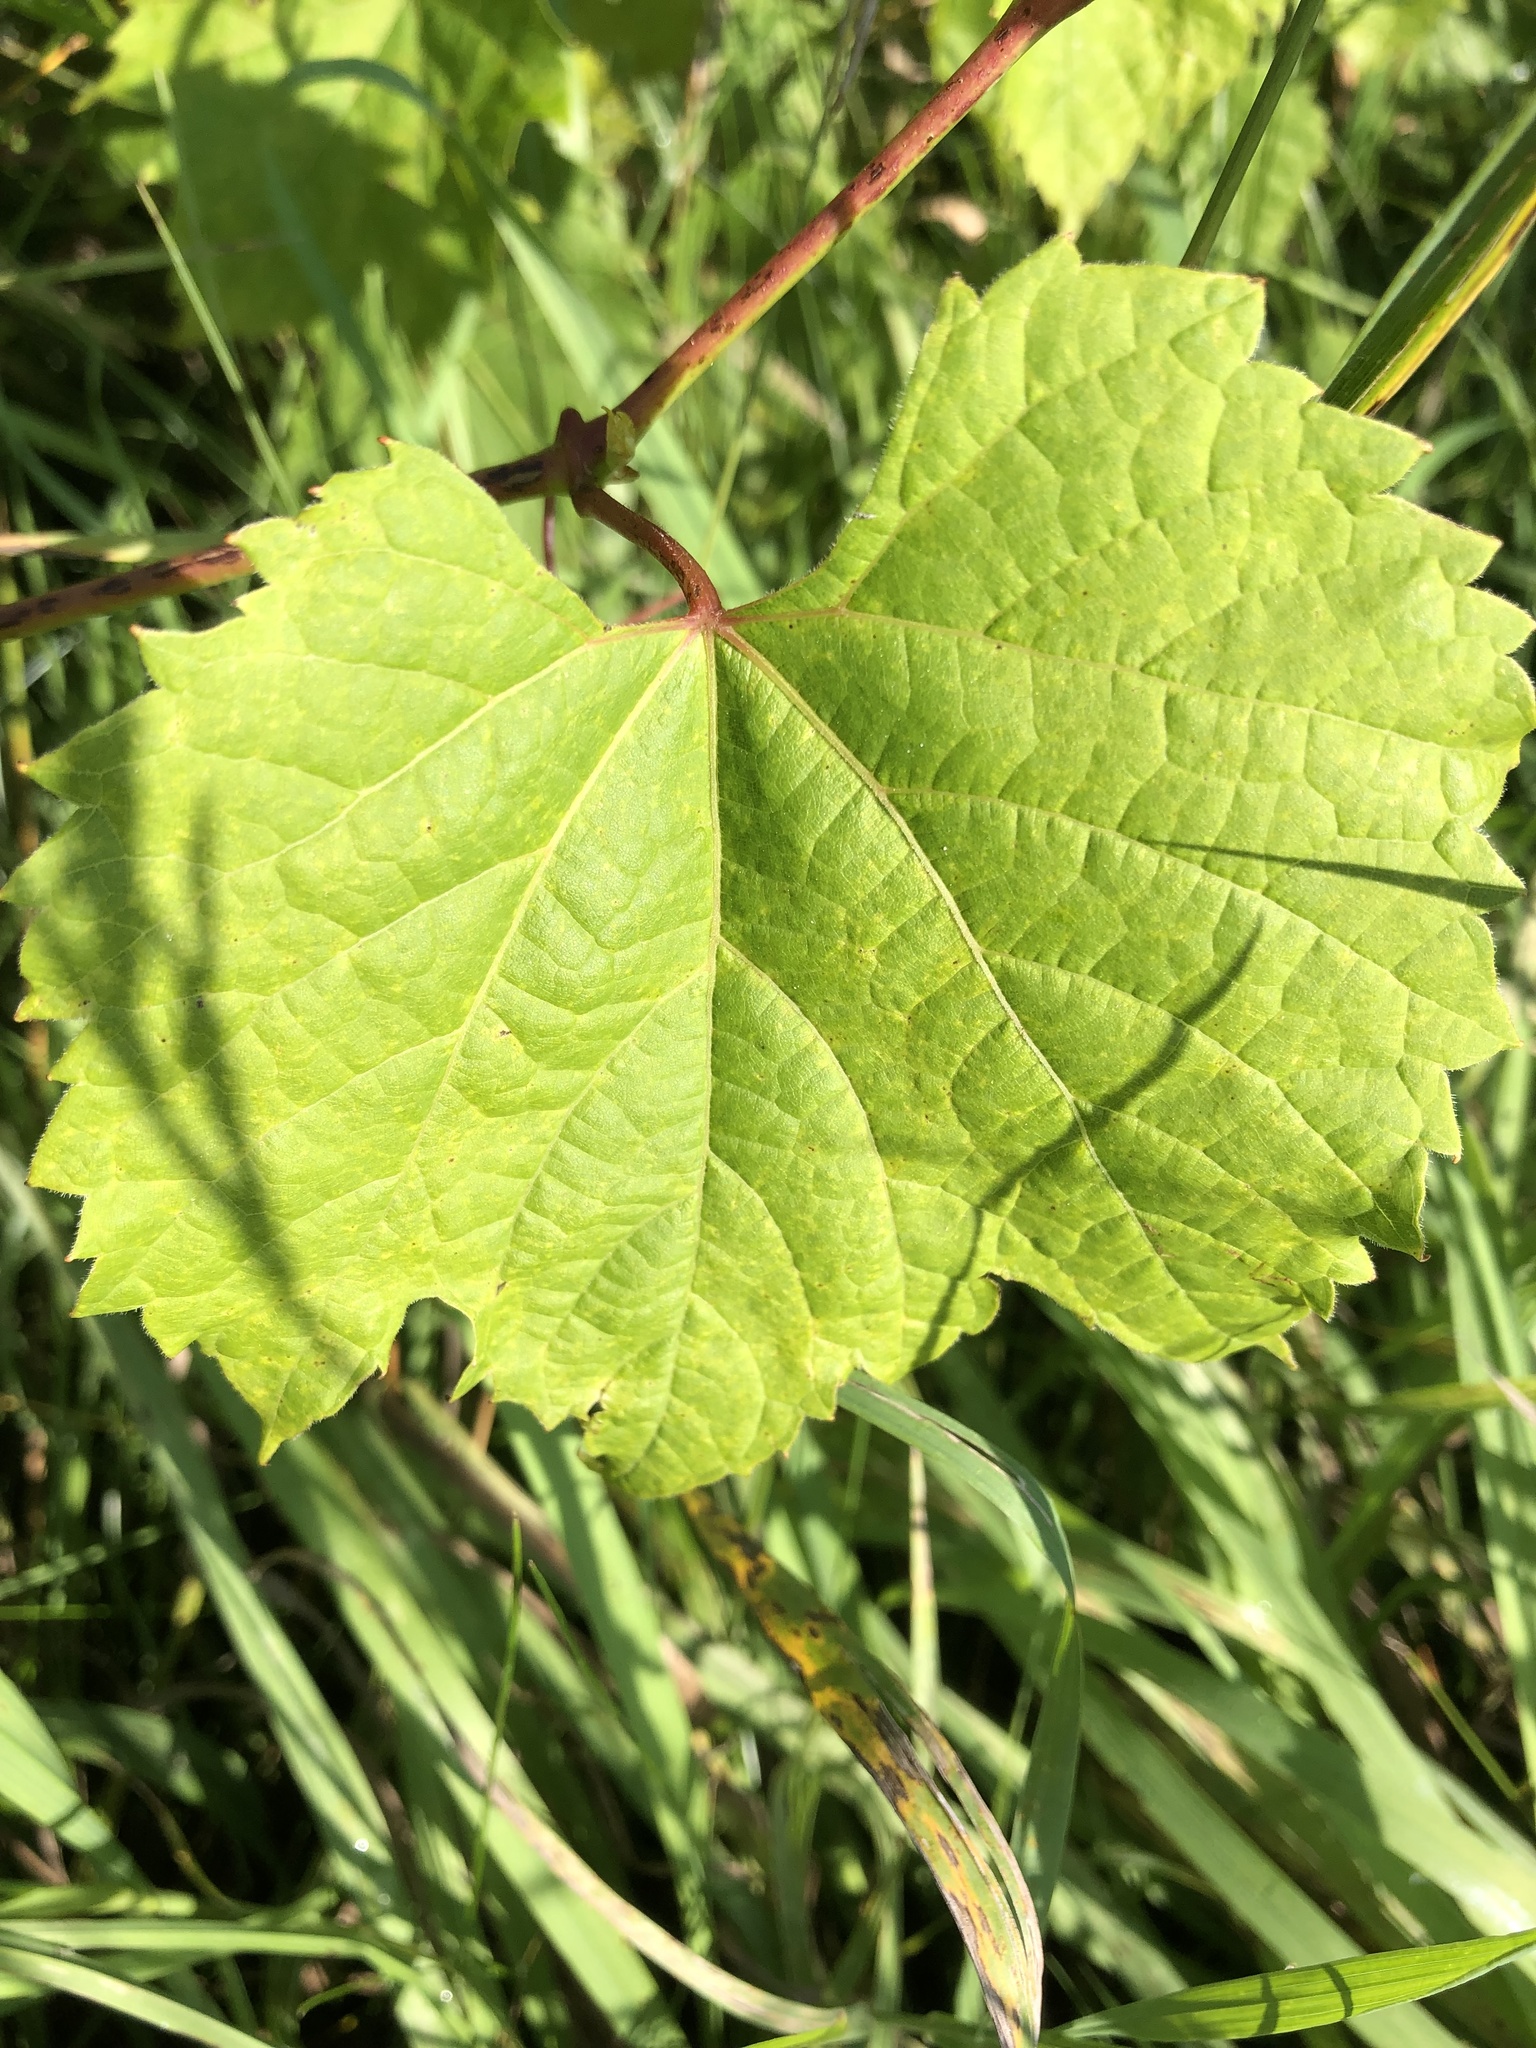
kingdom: Plantae
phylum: Tracheophyta
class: Magnoliopsida
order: Vitales
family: Vitaceae
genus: Vitis
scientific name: Vitis riparia
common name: Frost grape
